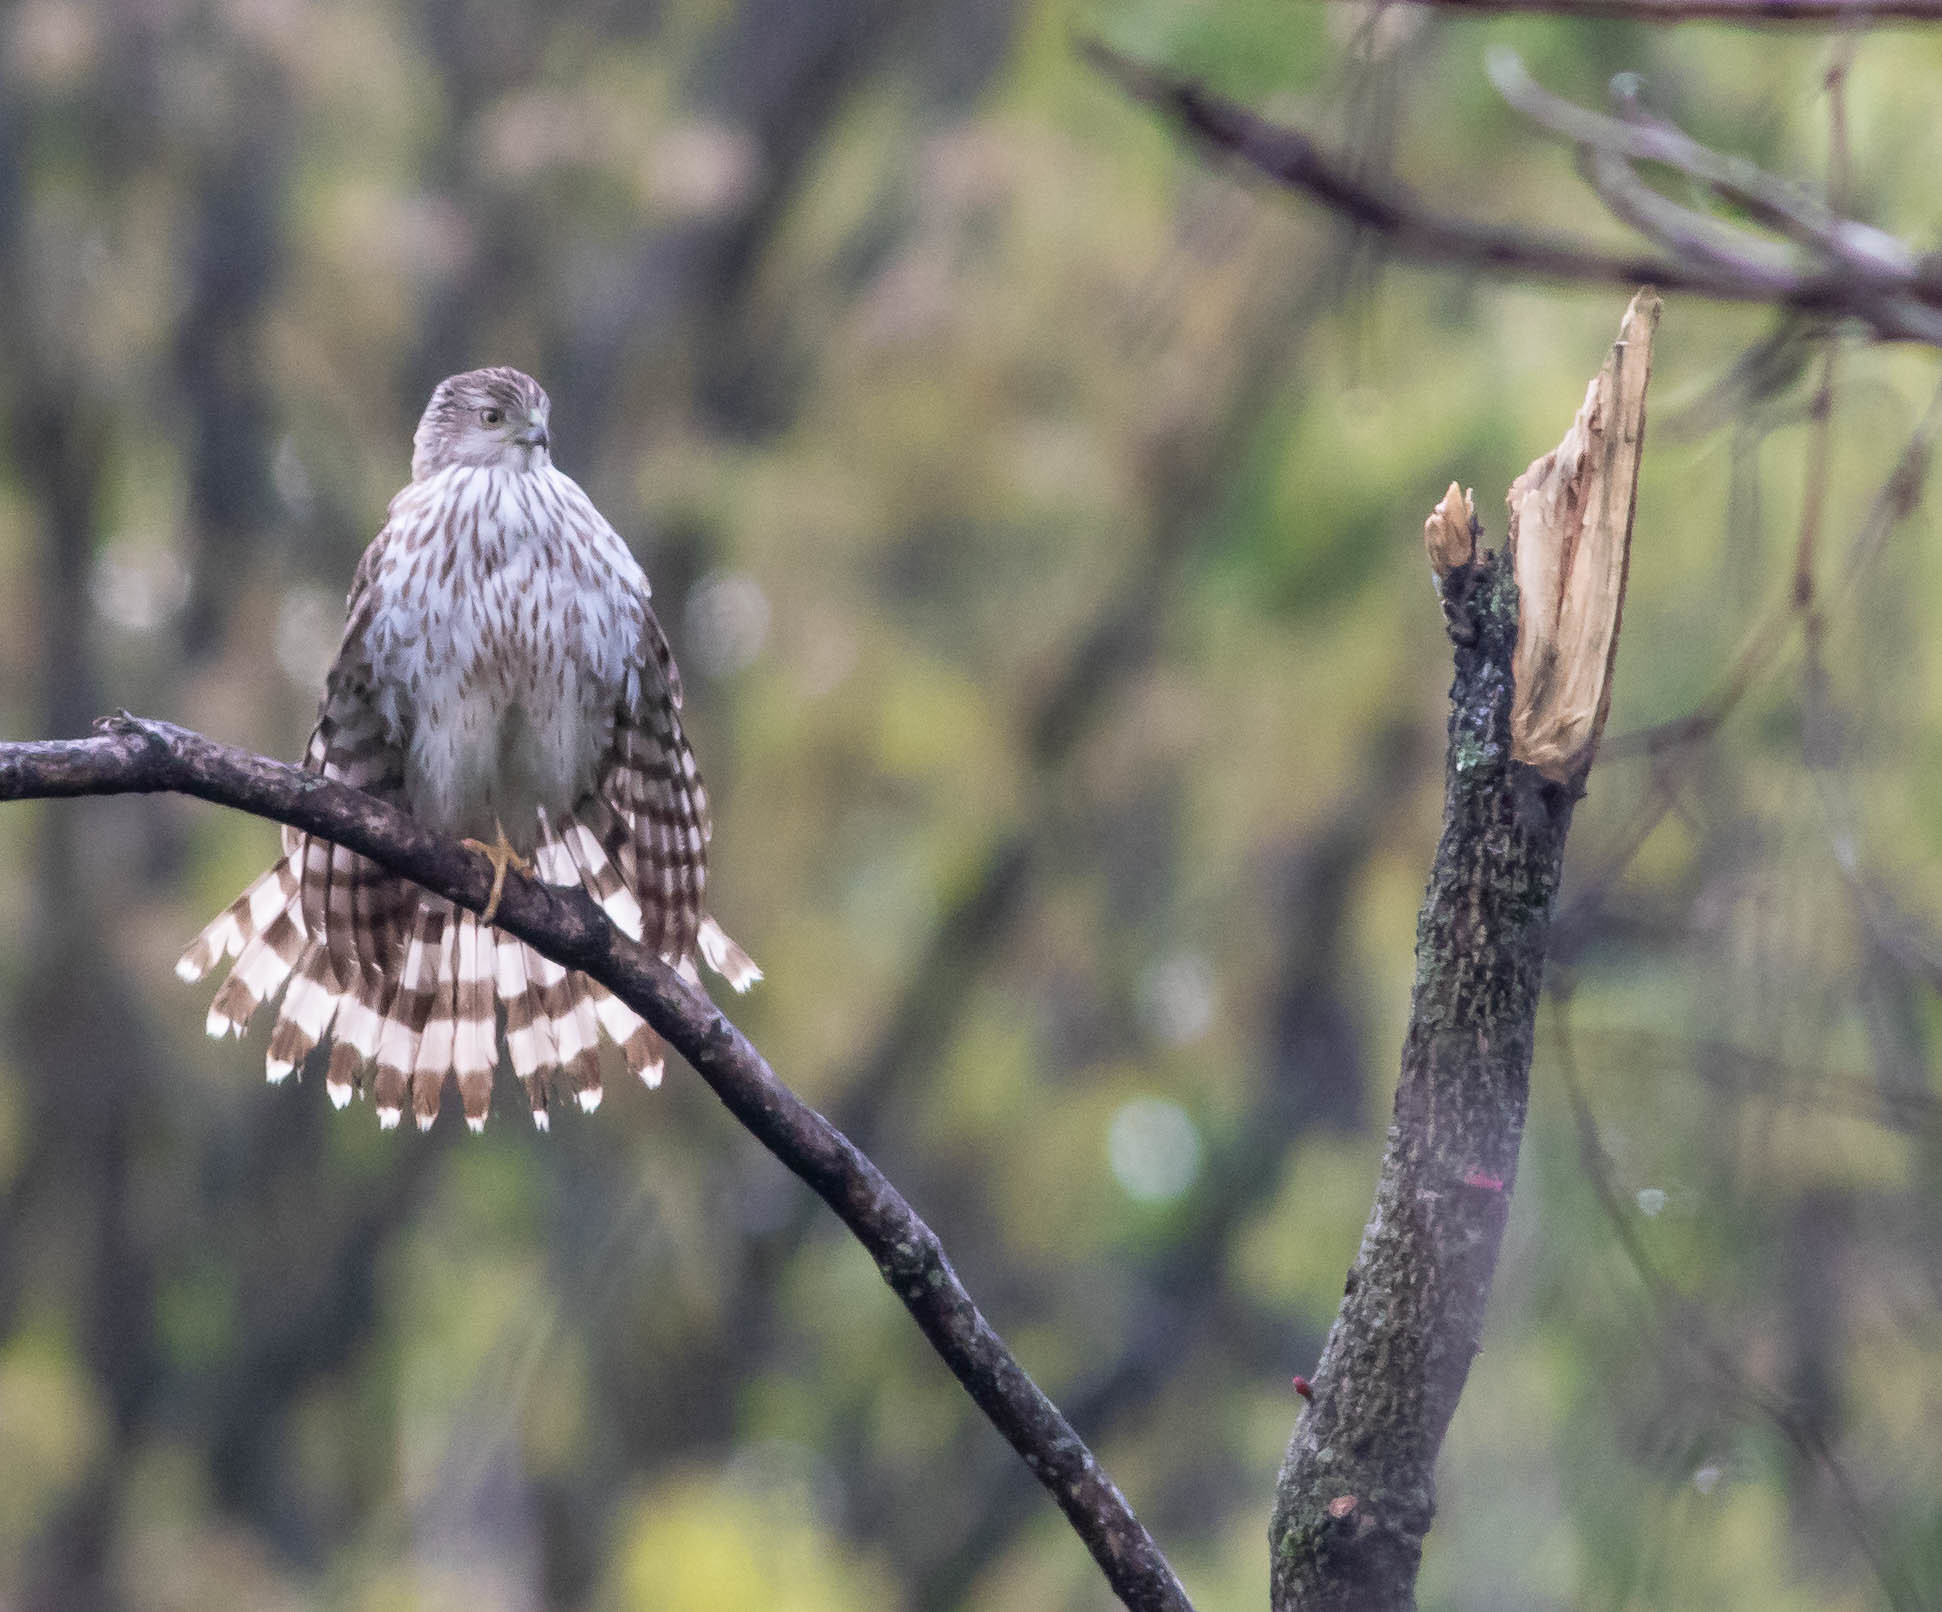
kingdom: Animalia
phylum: Chordata
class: Aves
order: Accipitriformes
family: Accipitridae
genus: Accipiter
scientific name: Accipiter cooperii
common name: Cooper's hawk
